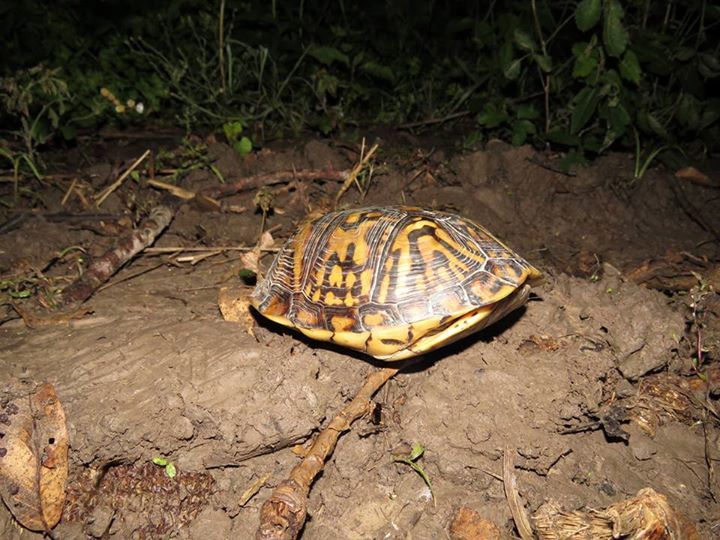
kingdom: Animalia
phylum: Chordata
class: Testudines
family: Emydidae
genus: Terrapene
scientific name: Terrapene carolina
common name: Common box turtle
